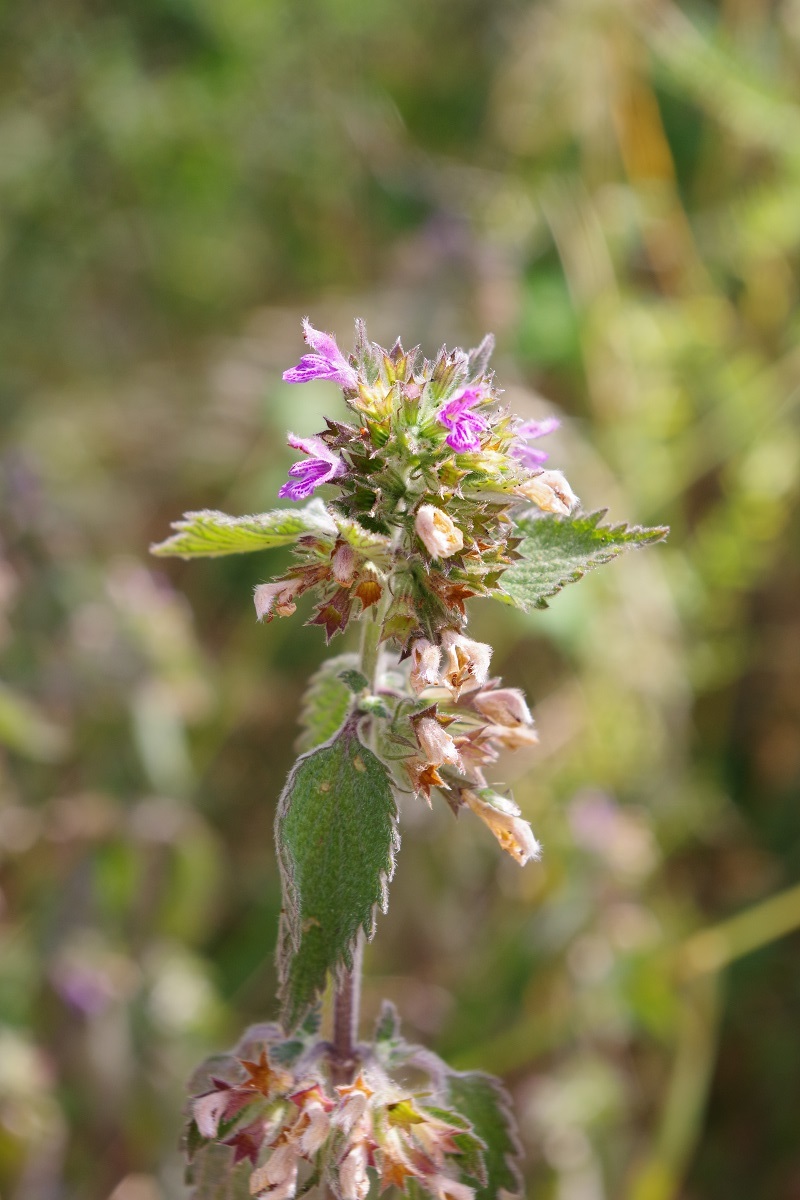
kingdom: Plantae
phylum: Tracheophyta
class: Magnoliopsida
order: Lamiales
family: Lamiaceae
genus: Ballota
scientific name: Ballota nigra
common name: Black horehound
